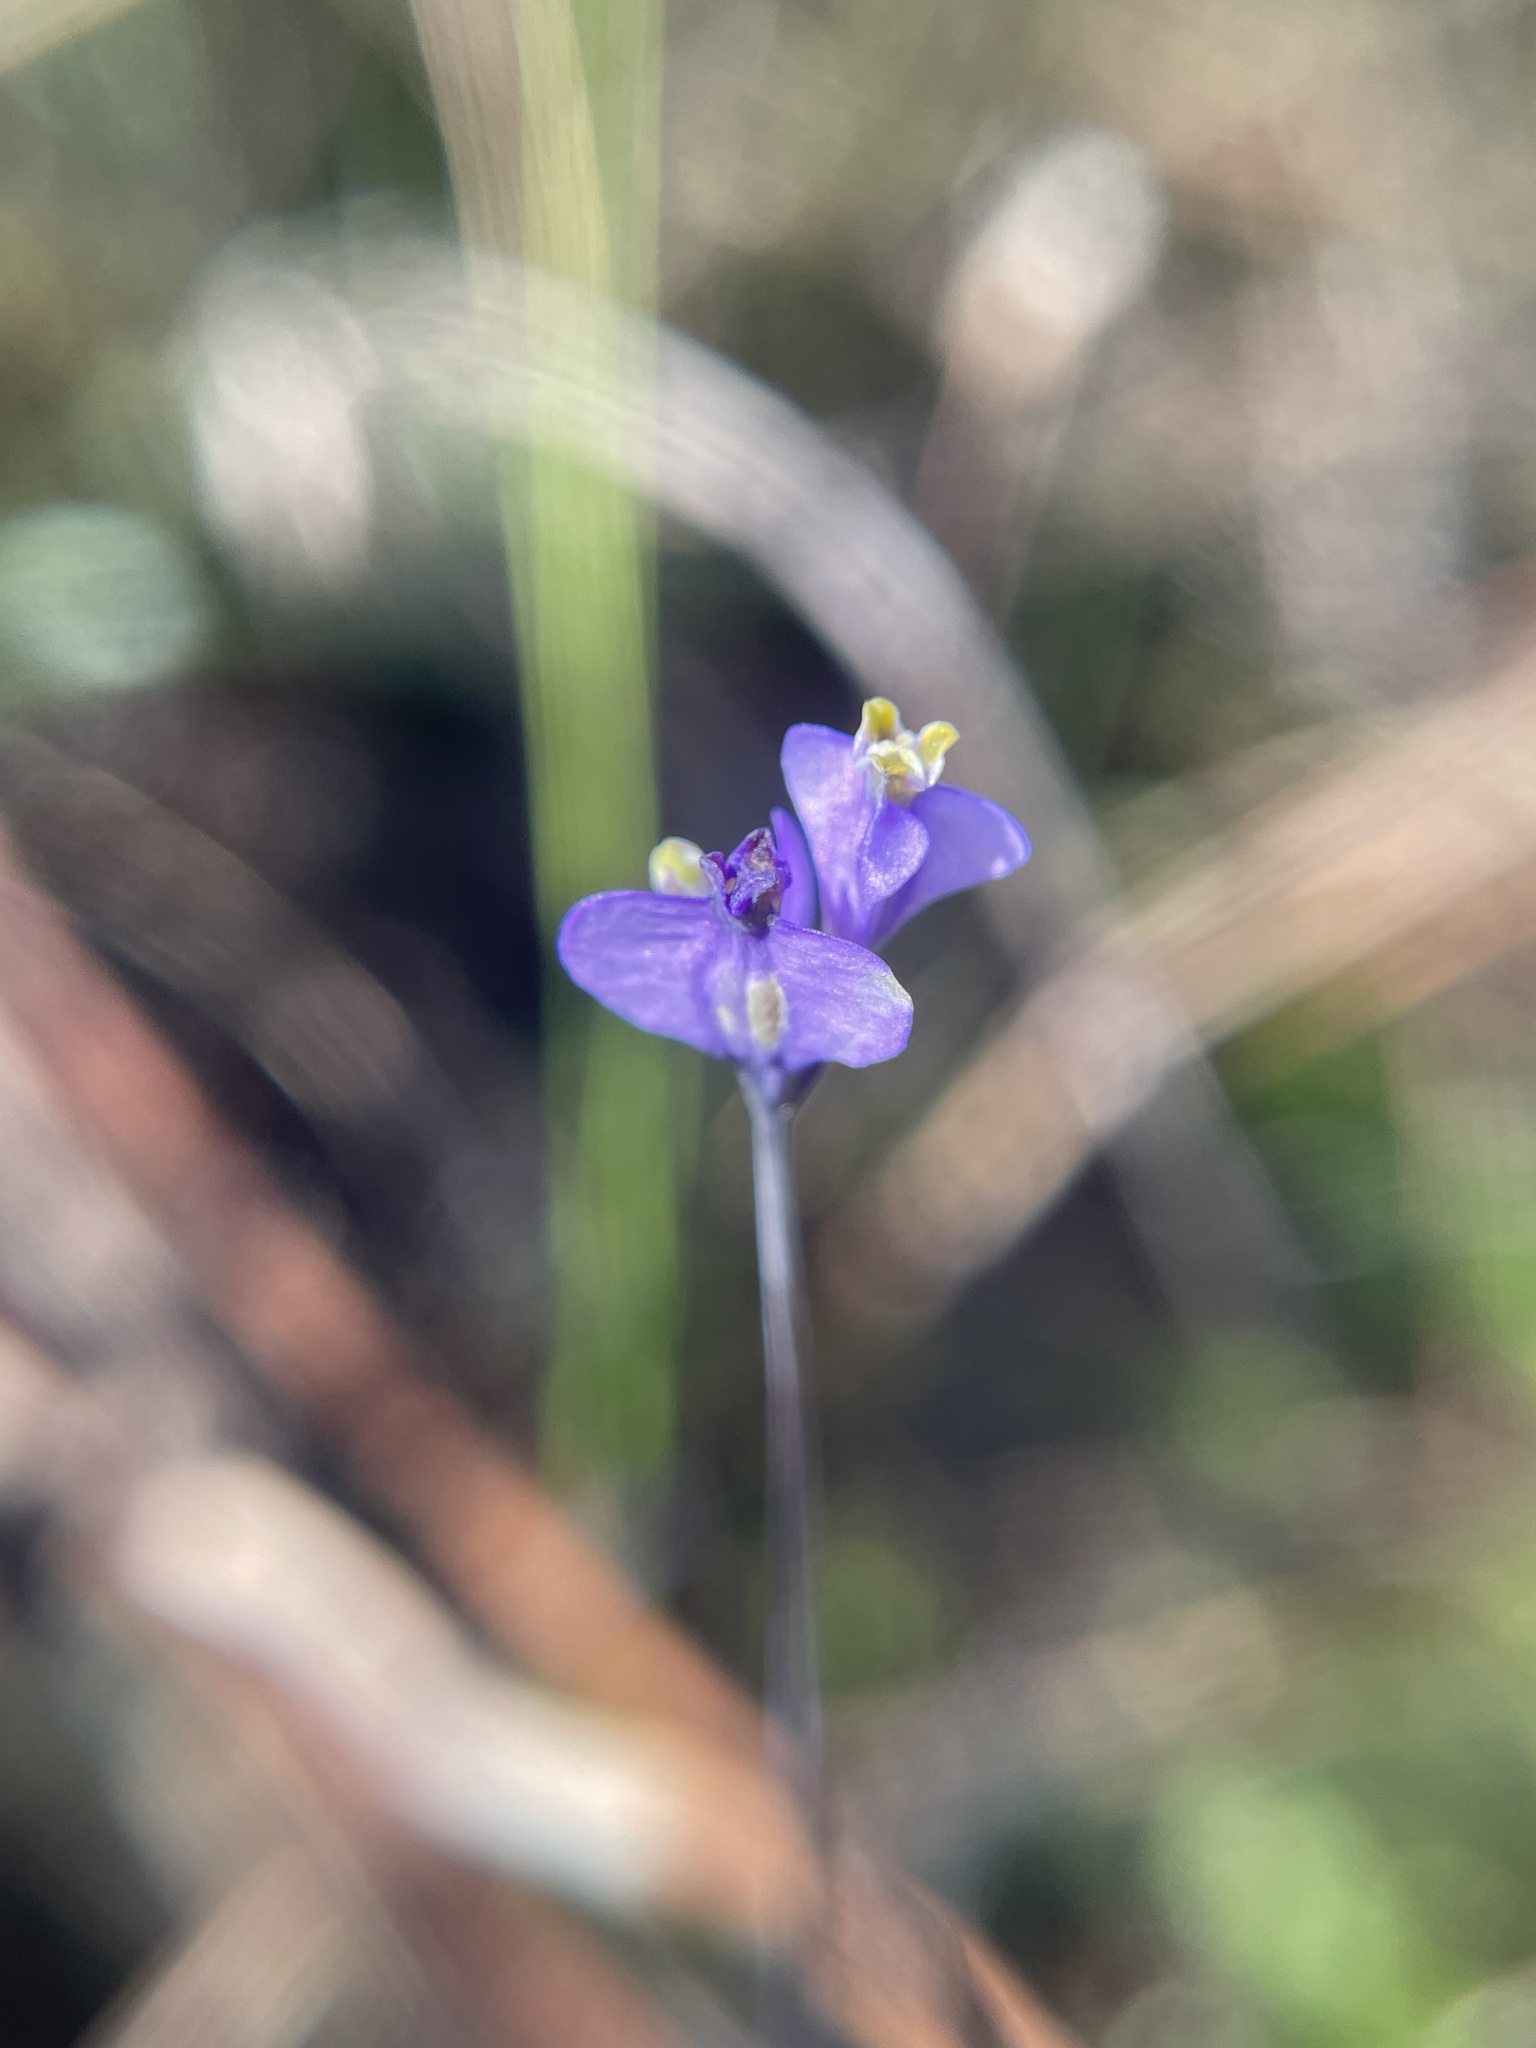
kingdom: Plantae
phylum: Tracheophyta
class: Liliopsida
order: Dioscoreales
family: Burmanniaceae
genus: Burmannia
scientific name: Burmannia biflora
